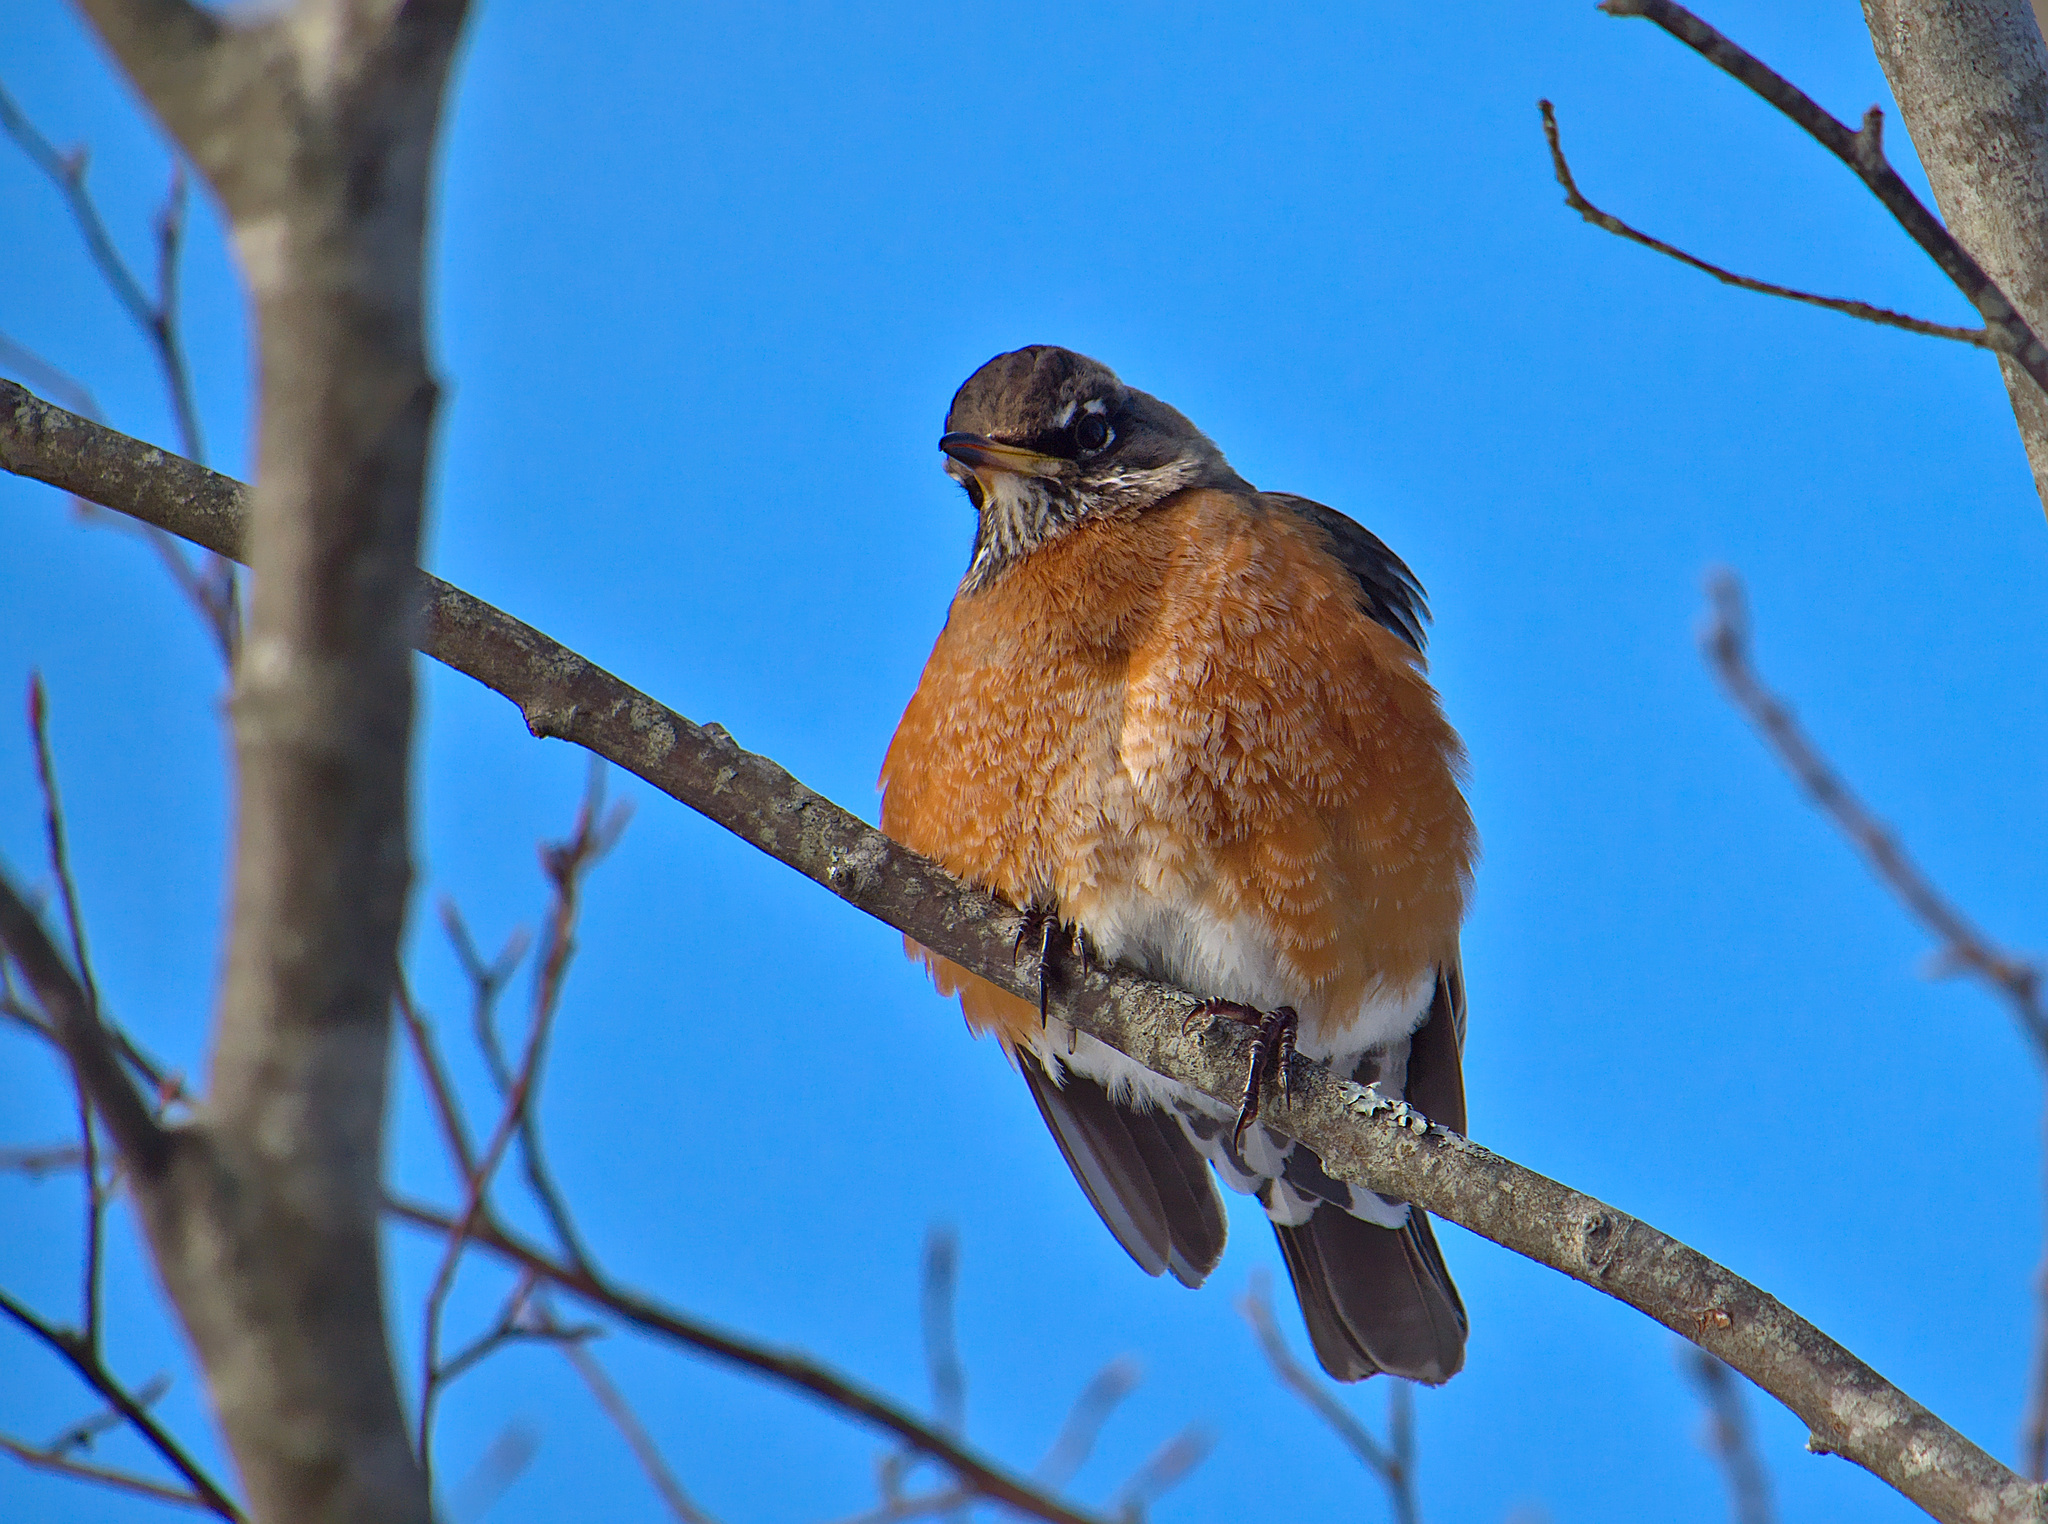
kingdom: Animalia
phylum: Chordata
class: Aves
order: Passeriformes
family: Turdidae
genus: Turdus
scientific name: Turdus migratorius
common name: American robin
